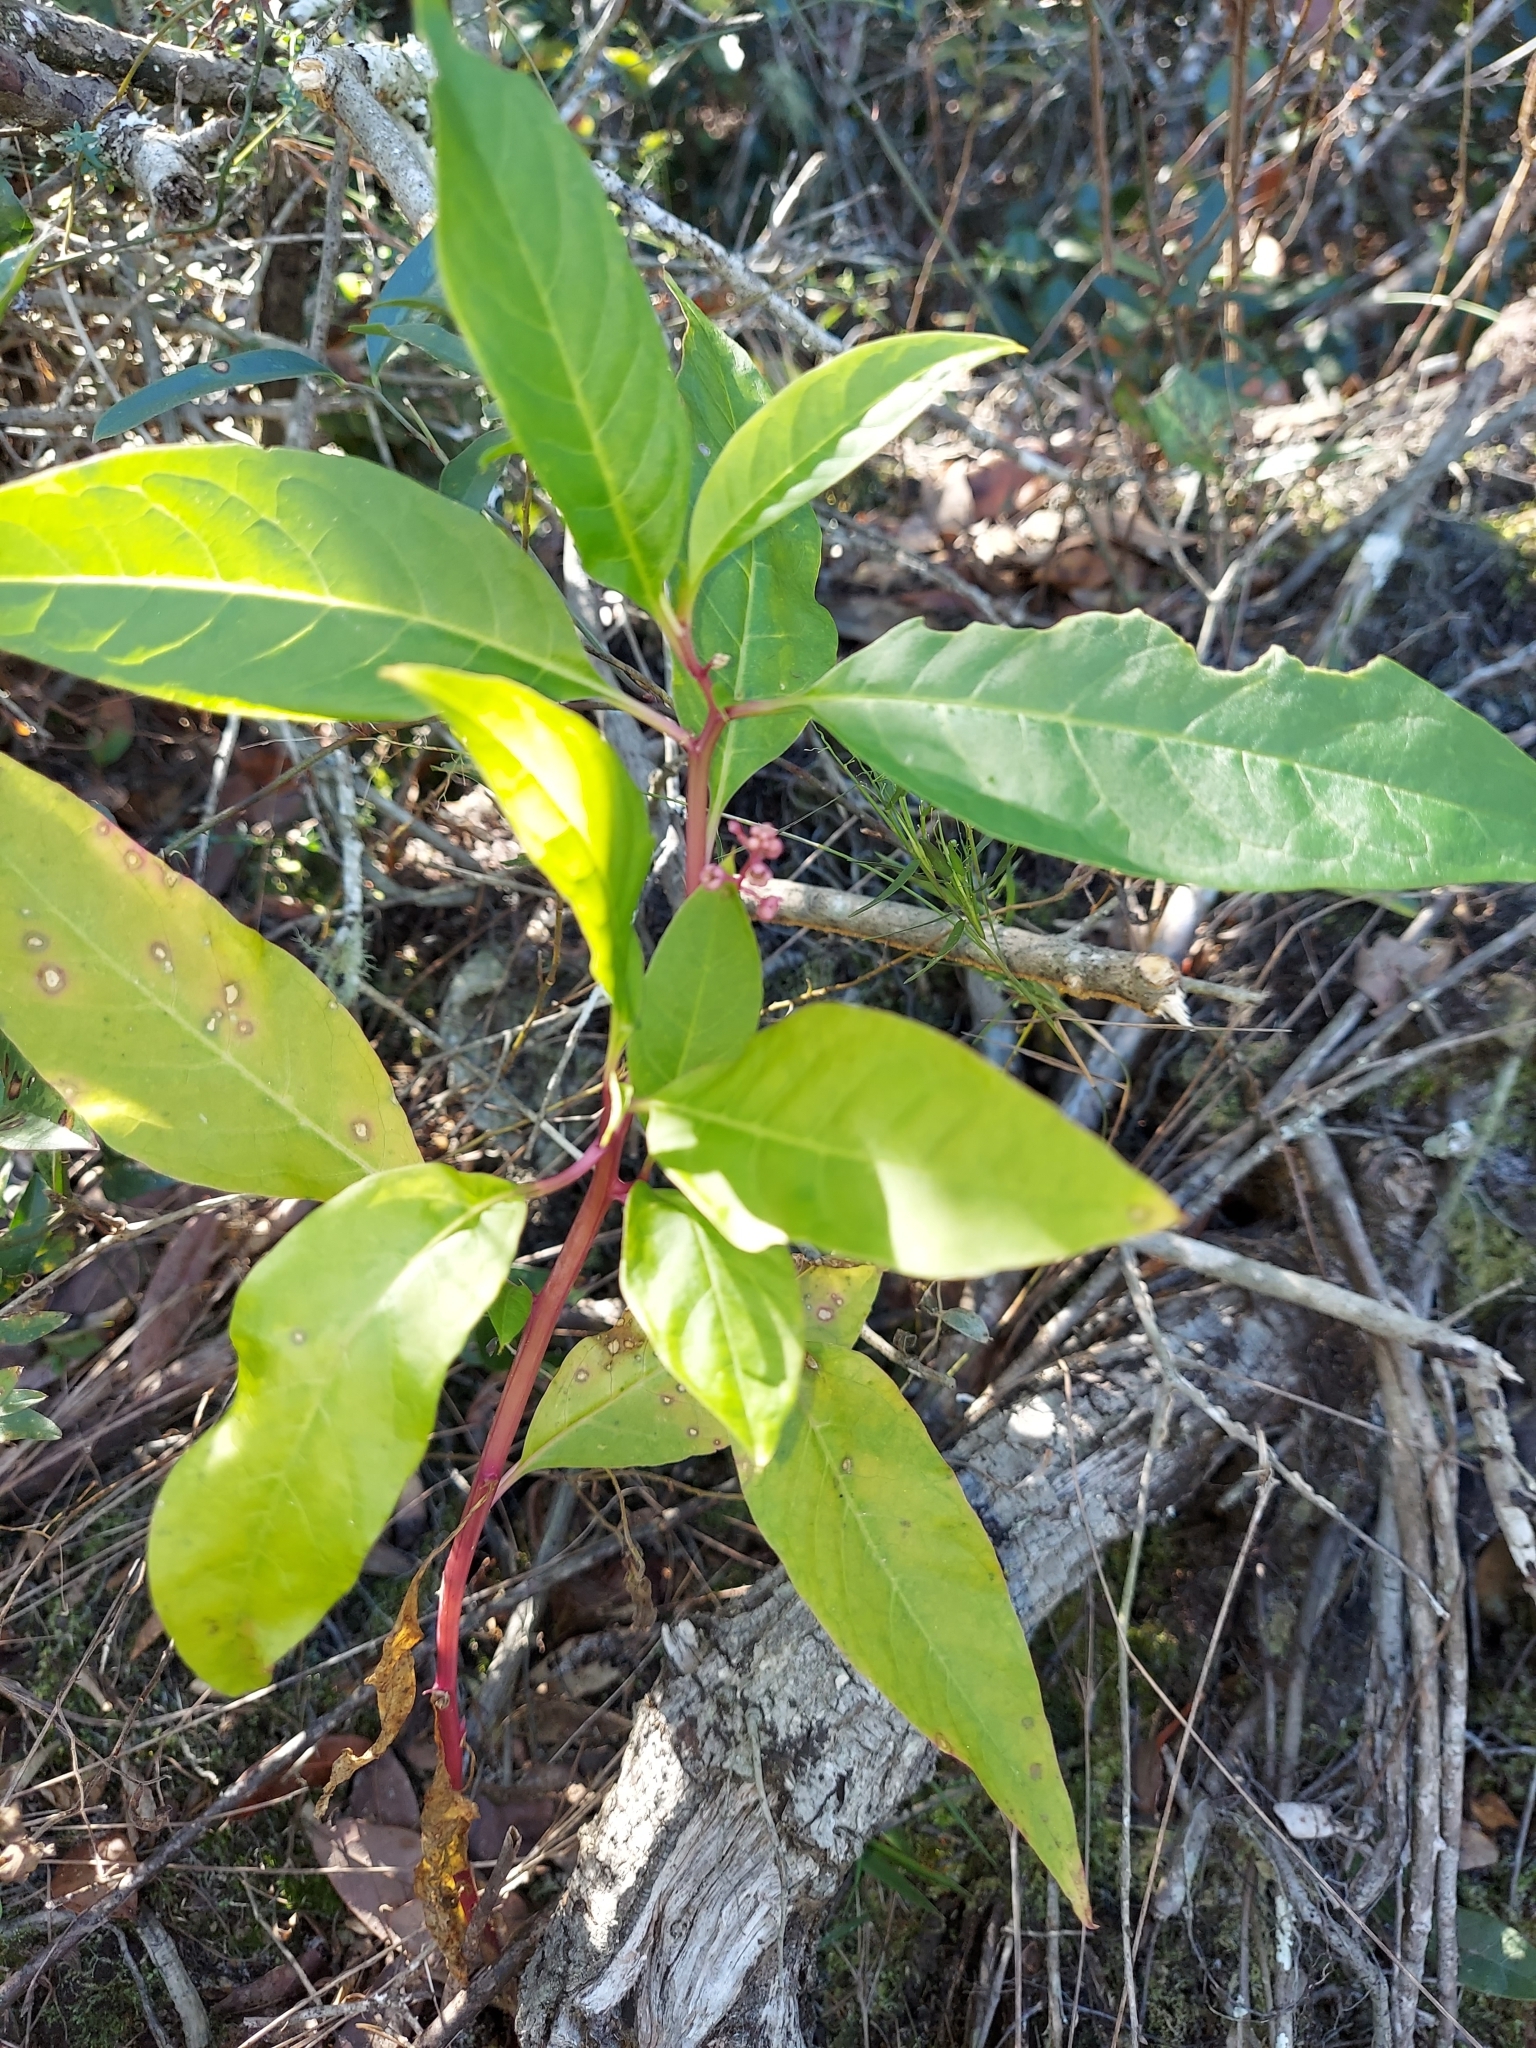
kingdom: Plantae
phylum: Tracheophyta
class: Magnoliopsida
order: Caryophyllales
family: Phytolaccaceae
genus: Phytolacca
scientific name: Phytolacca americana
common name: American pokeweed
